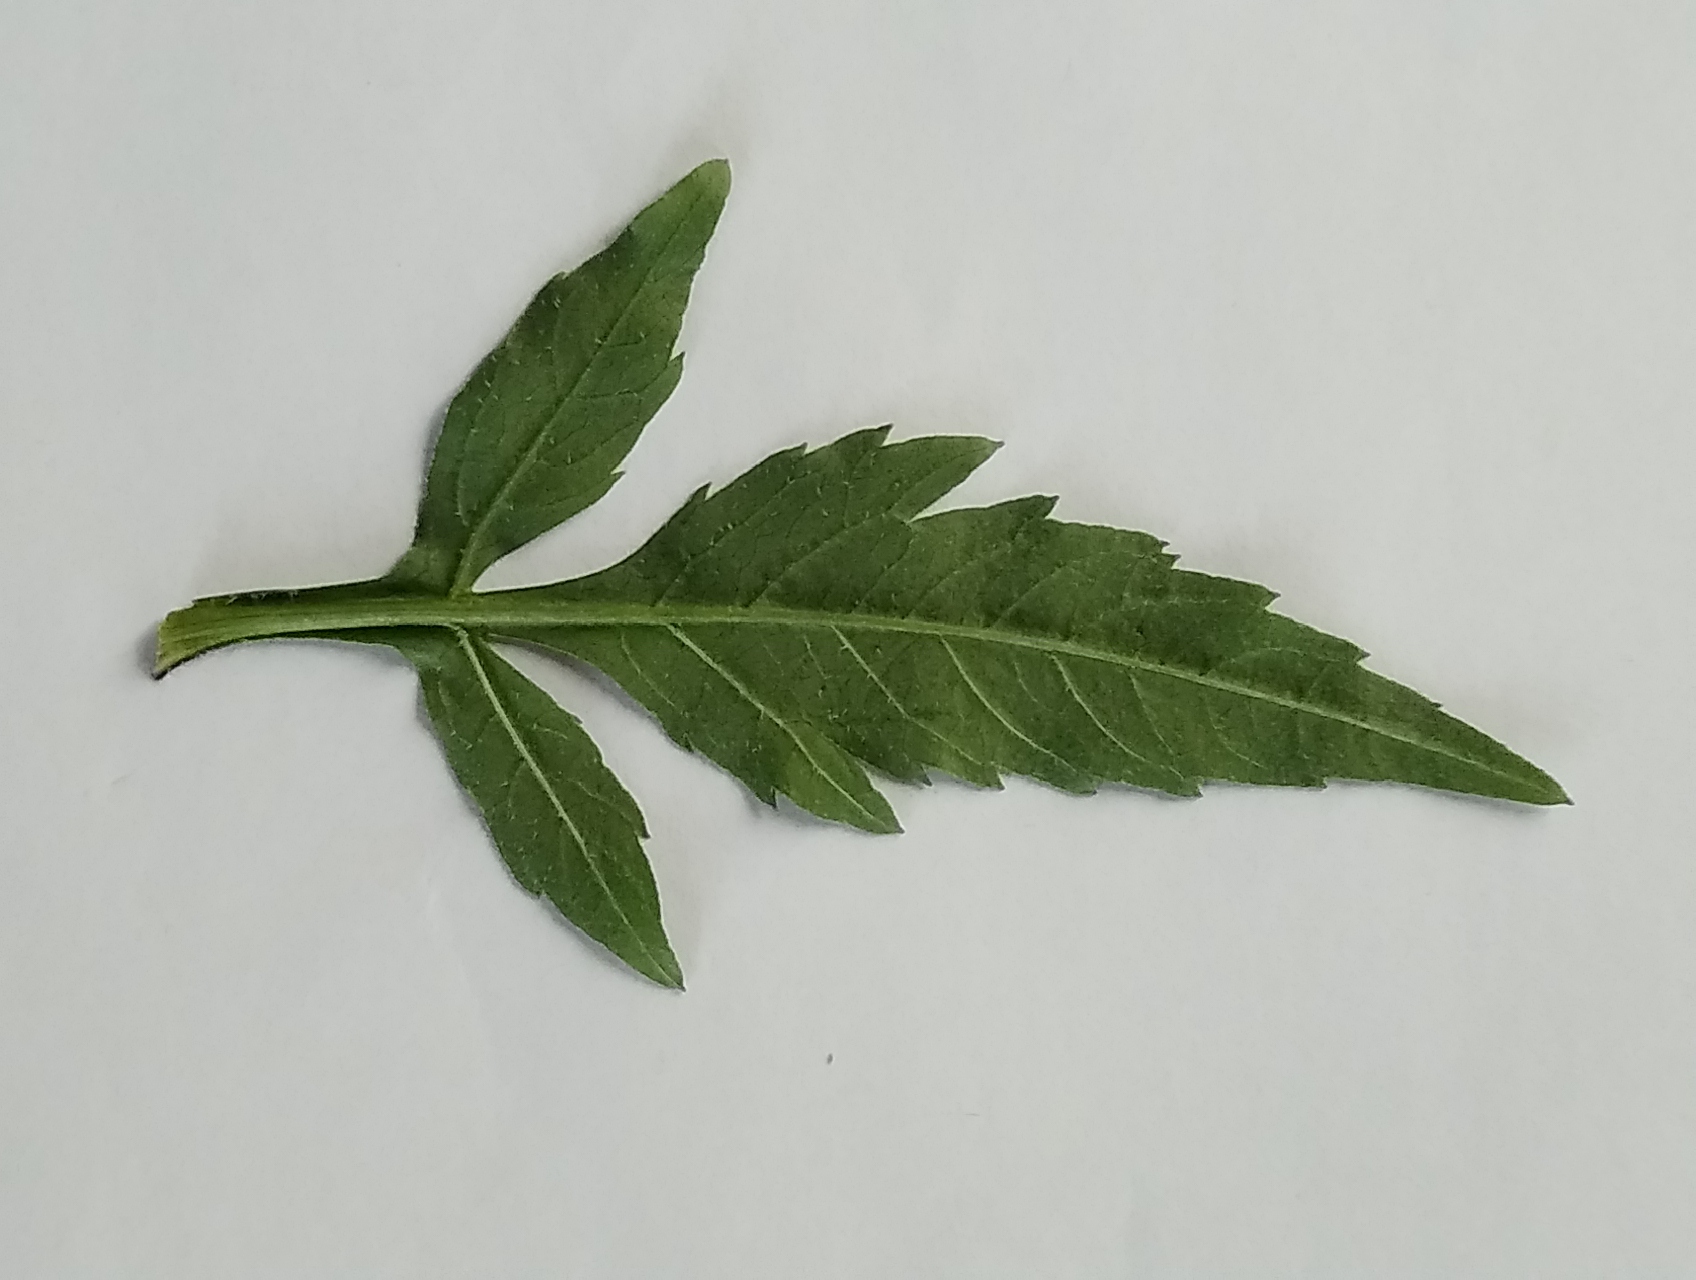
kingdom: Plantae
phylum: Tracheophyta
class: Magnoliopsida
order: Asterales
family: Asteraceae
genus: Bidens
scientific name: Bidens tripartita
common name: Trifid bur-marigold
